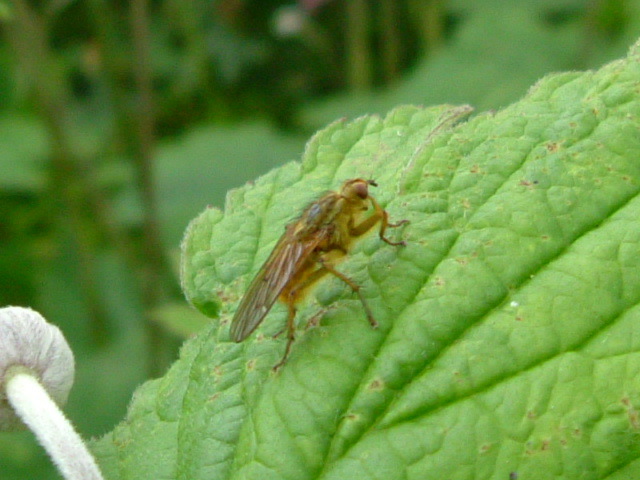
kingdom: Animalia
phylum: Arthropoda
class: Insecta
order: Diptera
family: Scathophagidae
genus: Scathophaga
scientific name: Scathophaga stercoraria
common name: Yellow dung fly
